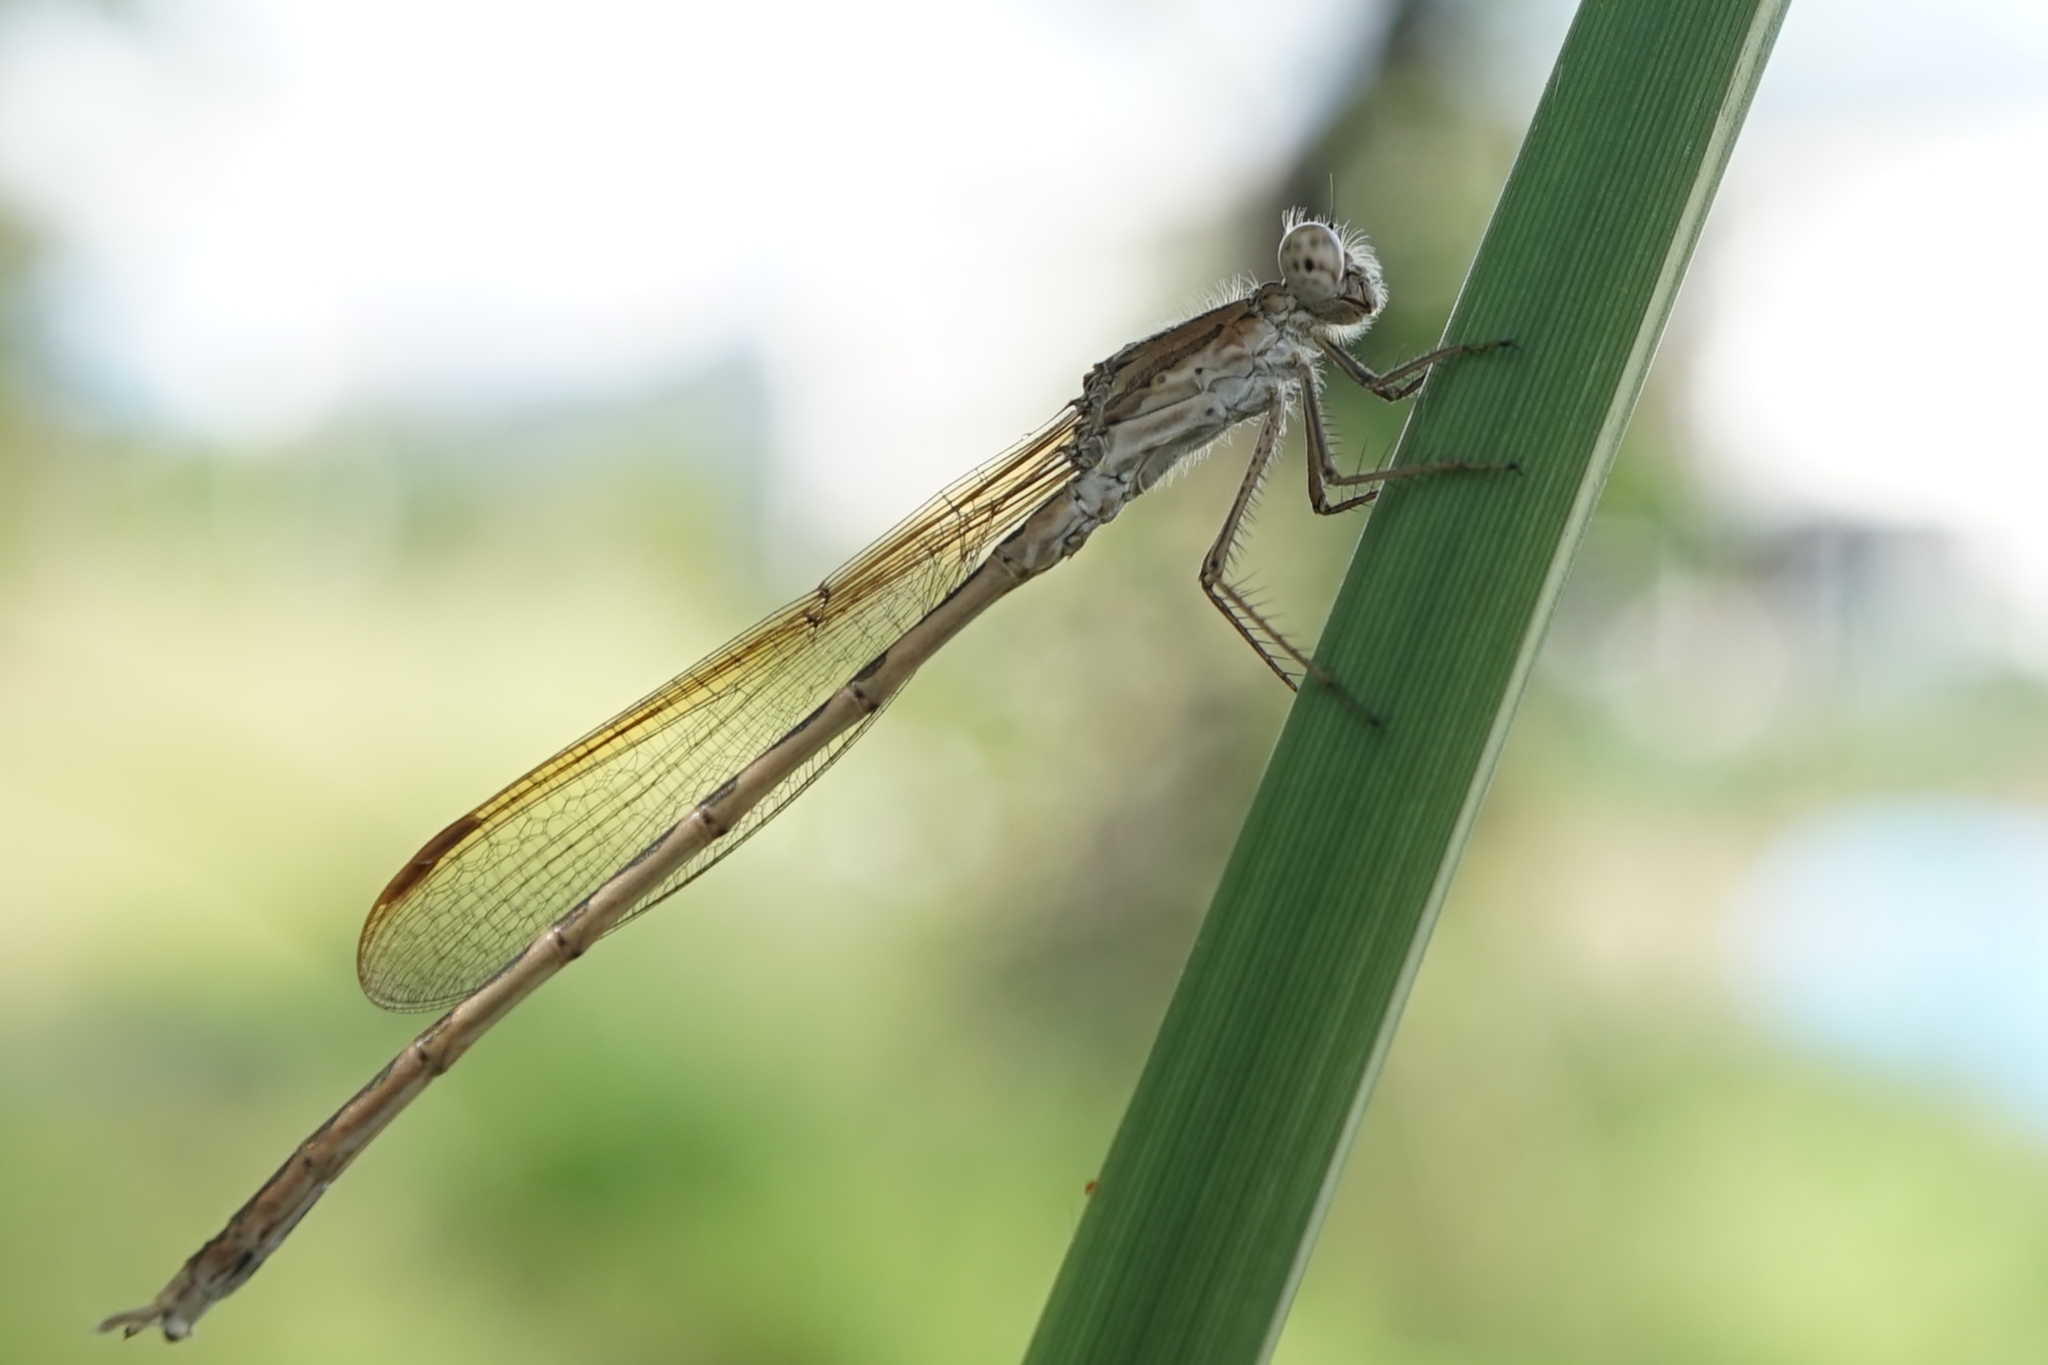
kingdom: Animalia
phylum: Arthropoda
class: Insecta
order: Odonata
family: Lestidae
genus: Sympecma
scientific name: Sympecma paedisca
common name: Siberian winter damsel
